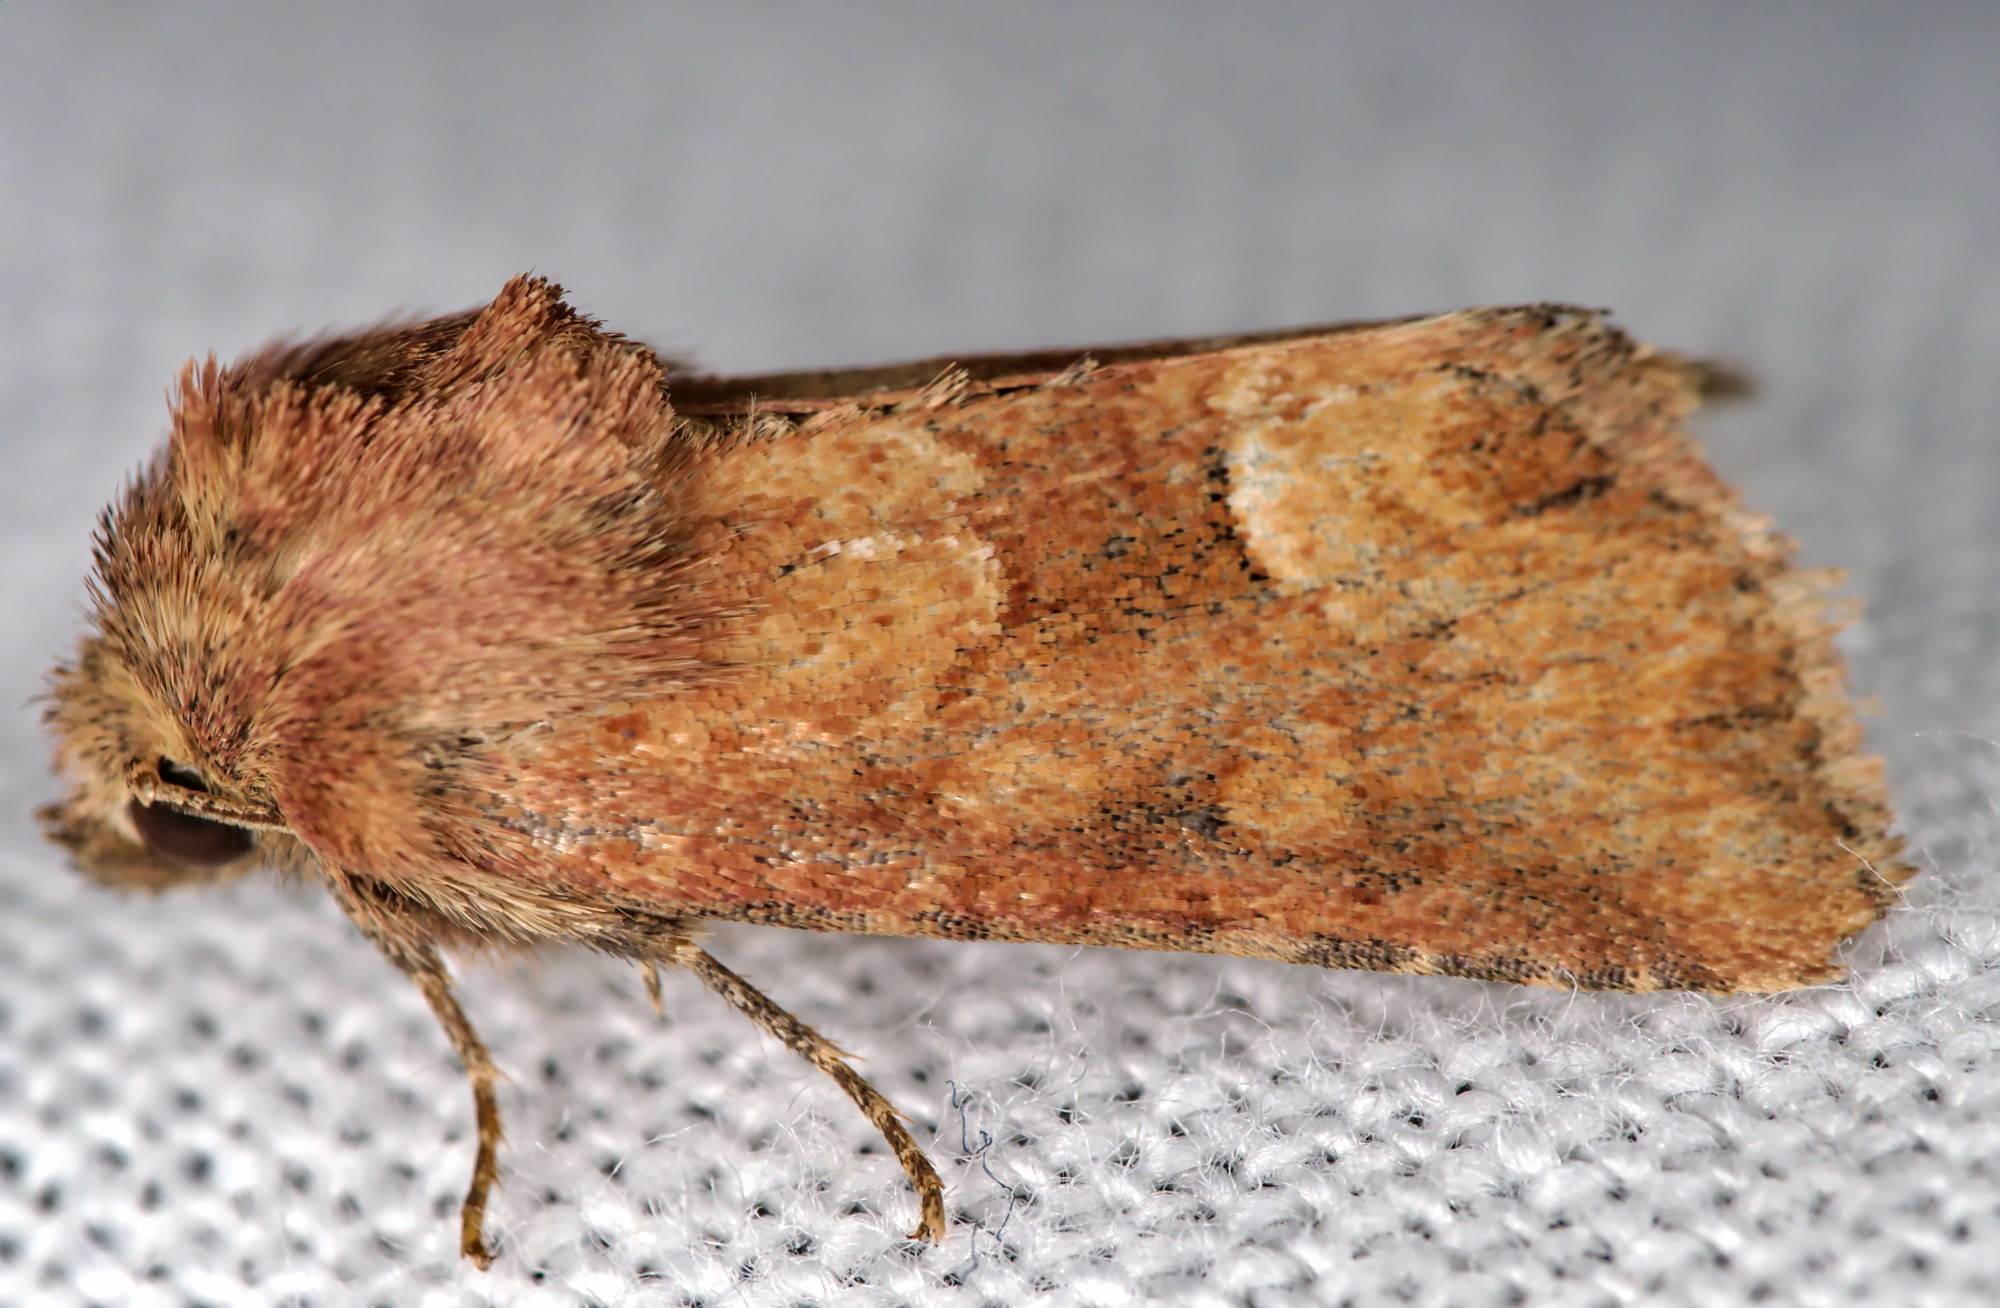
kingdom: Animalia
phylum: Arthropoda
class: Insecta
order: Lepidoptera
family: Noctuidae
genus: Oligia
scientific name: Oligia fasciuncula
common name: Middle-barred minor
